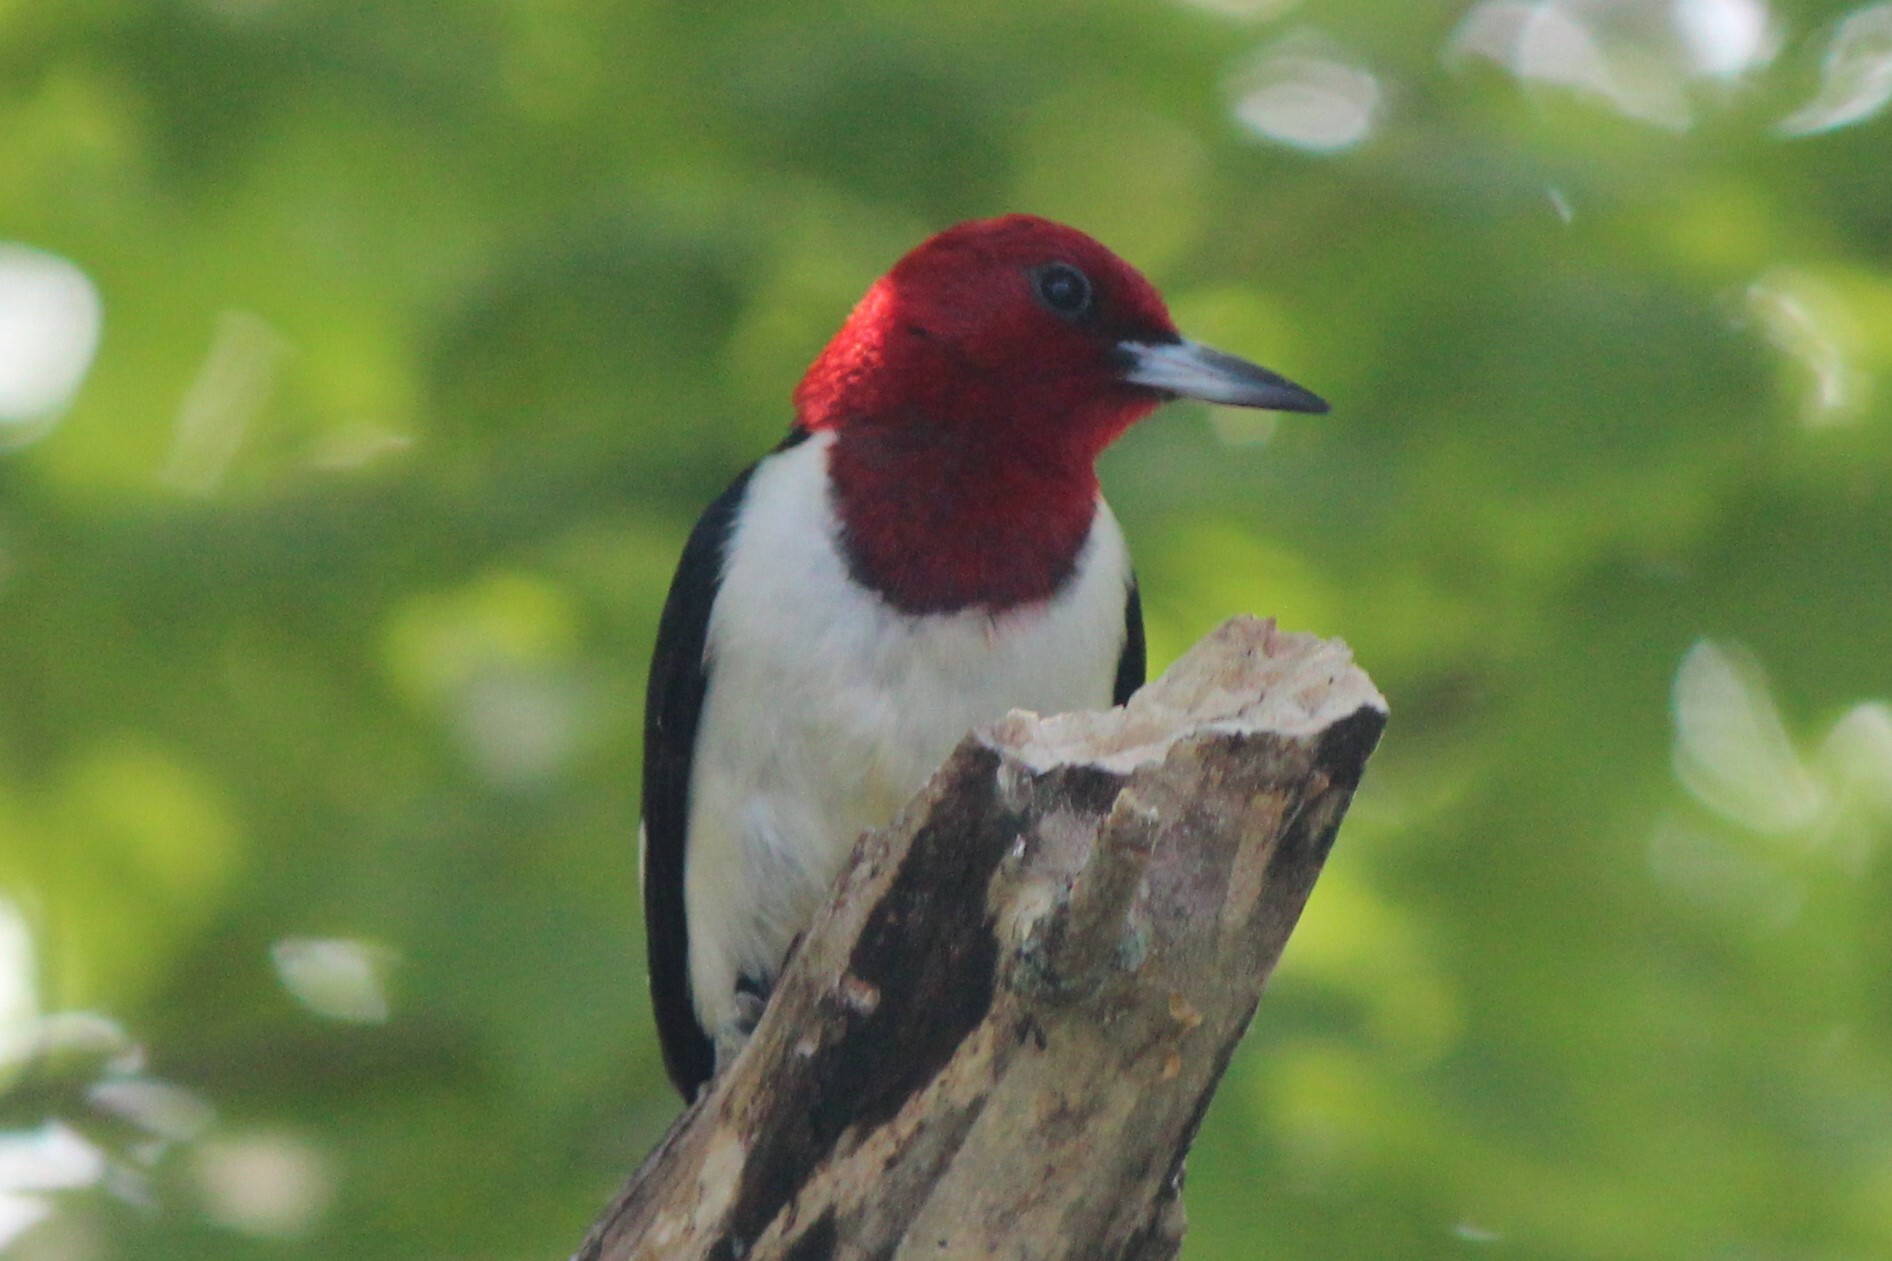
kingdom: Animalia
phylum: Chordata
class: Aves
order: Piciformes
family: Picidae
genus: Melanerpes
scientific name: Melanerpes erythrocephalus
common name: Red-headed woodpecker
